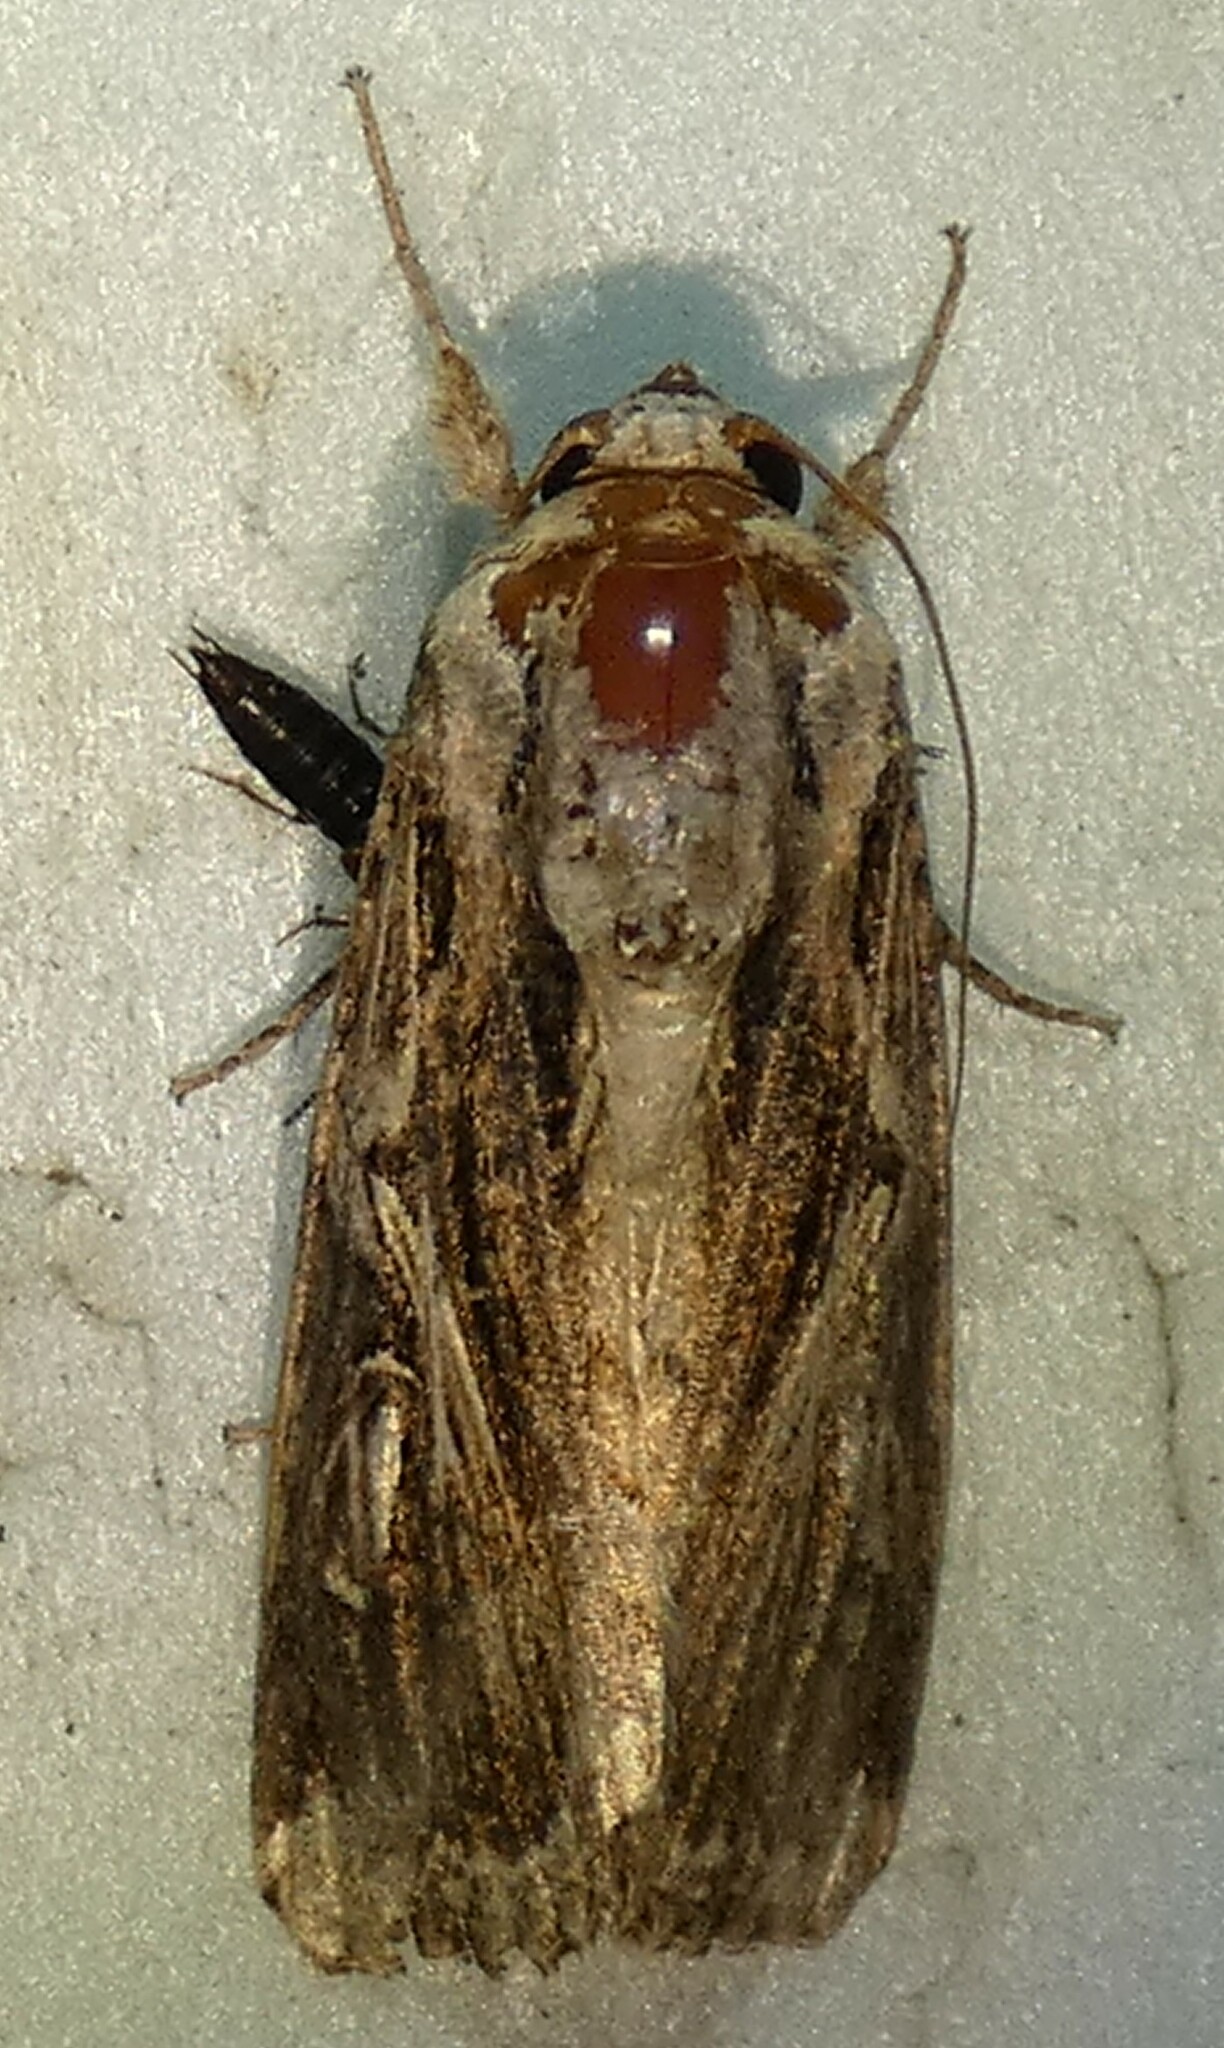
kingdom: Animalia
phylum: Arthropoda
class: Insecta
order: Lepidoptera
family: Noctuidae
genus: Spodoptera
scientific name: Spodoptera dolichos
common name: Sweetpotato armyworm
